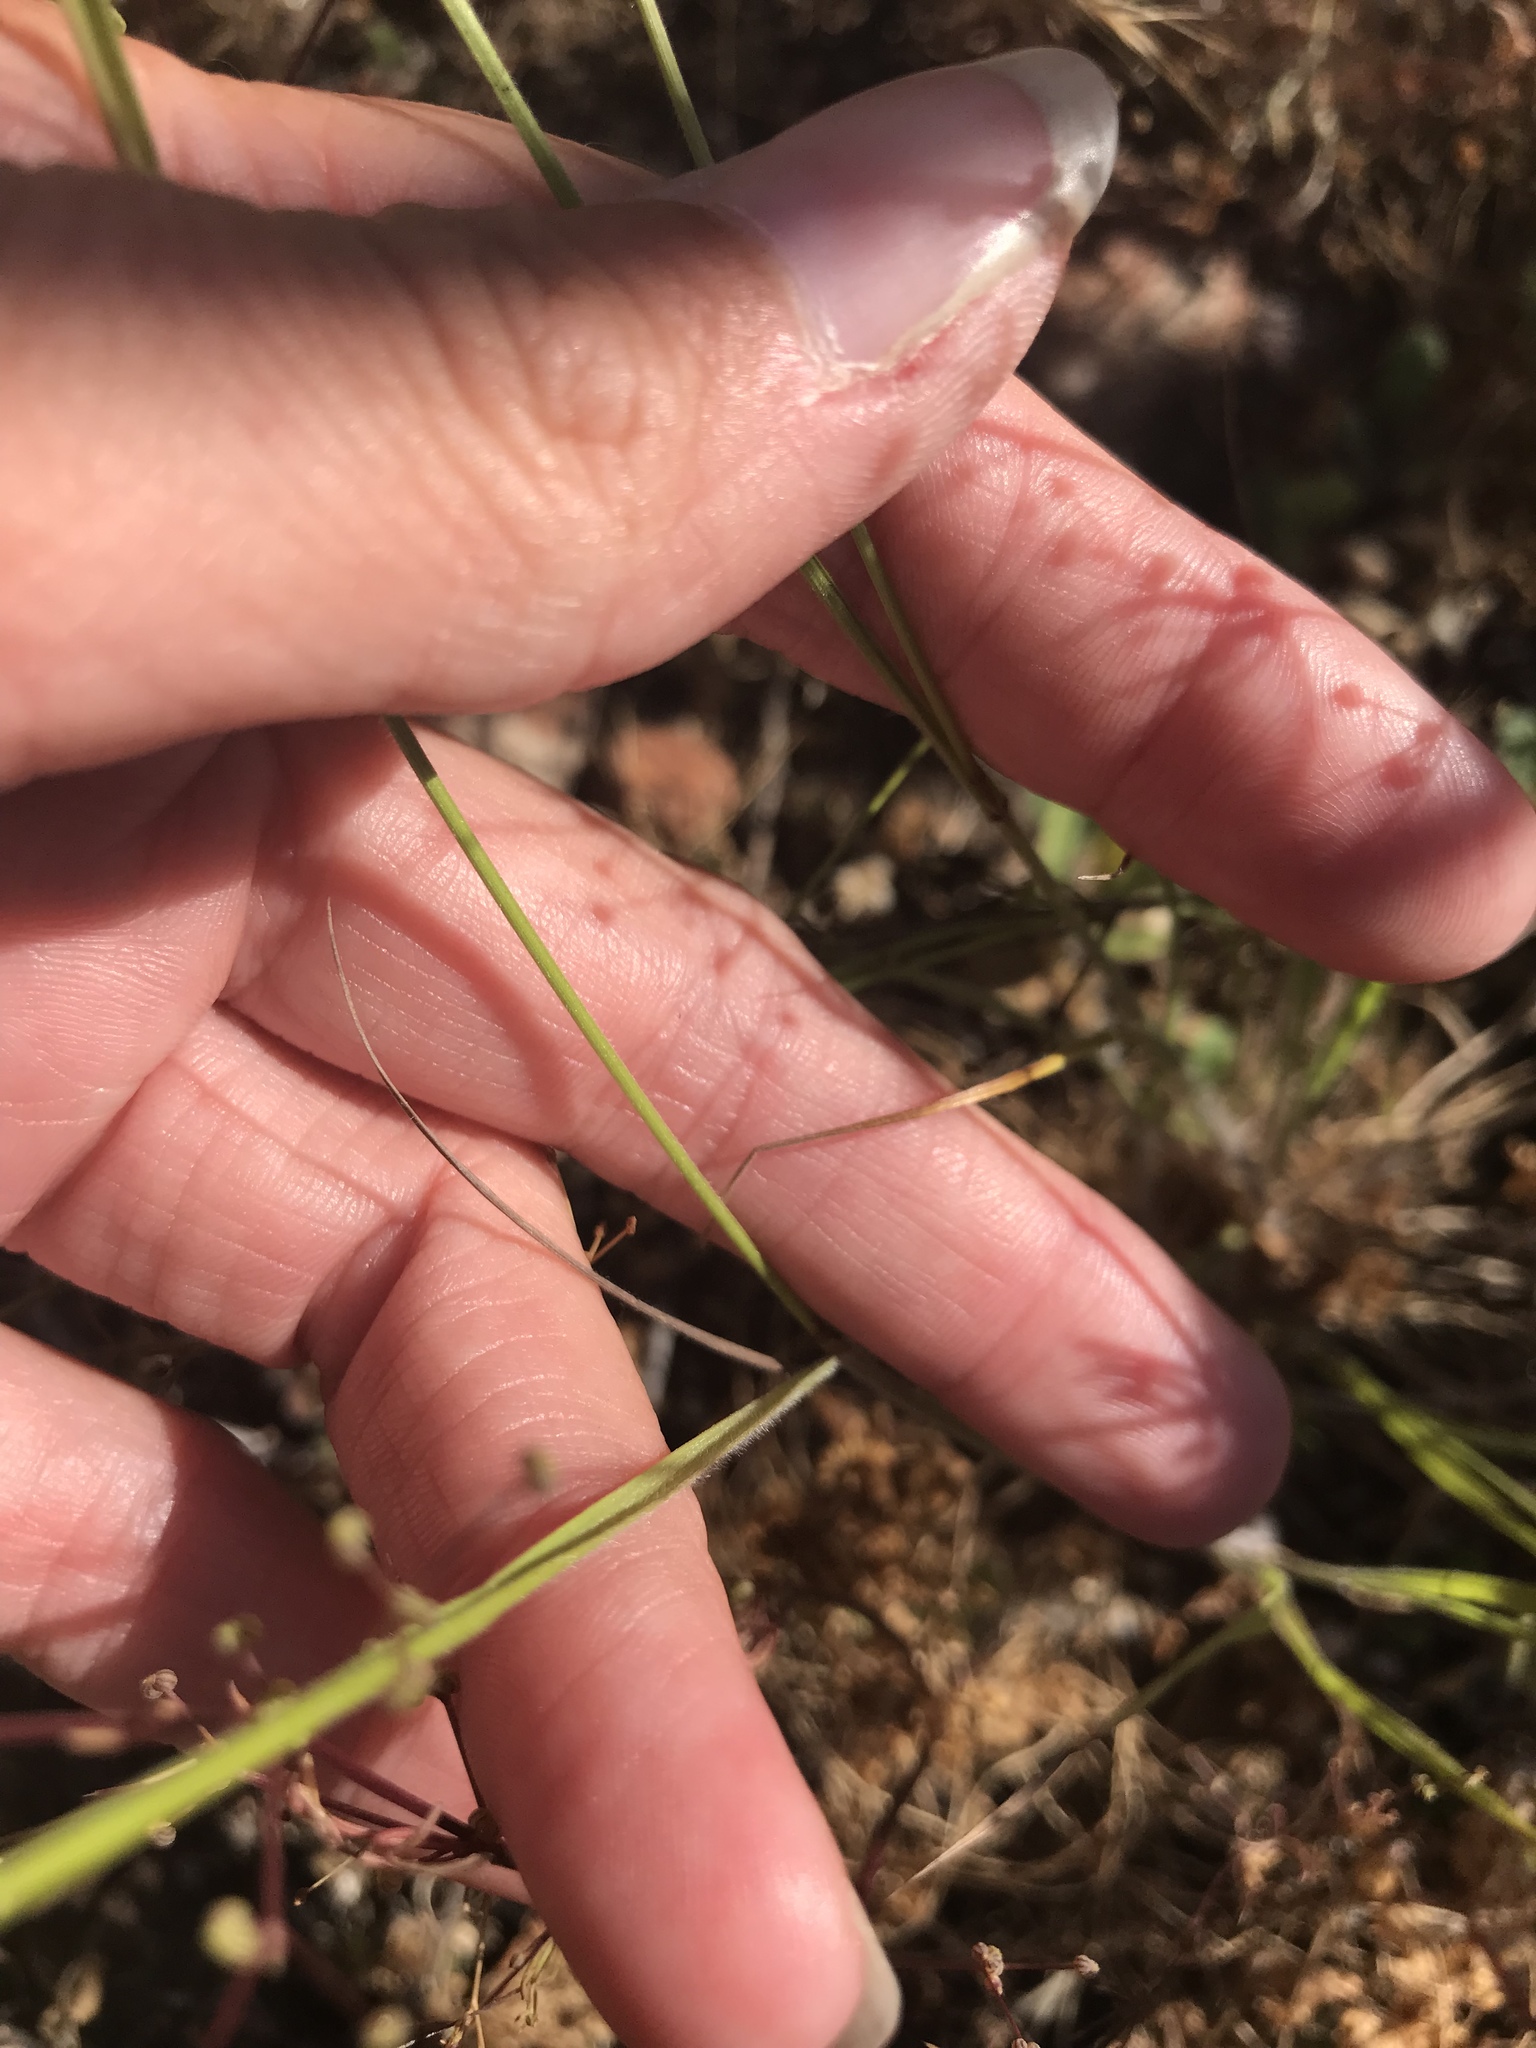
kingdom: Plantae
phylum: Tracheophyta
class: Liliopsida
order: Poales
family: Poaceae
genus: Melica
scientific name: Melica imperfecta
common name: California melic
